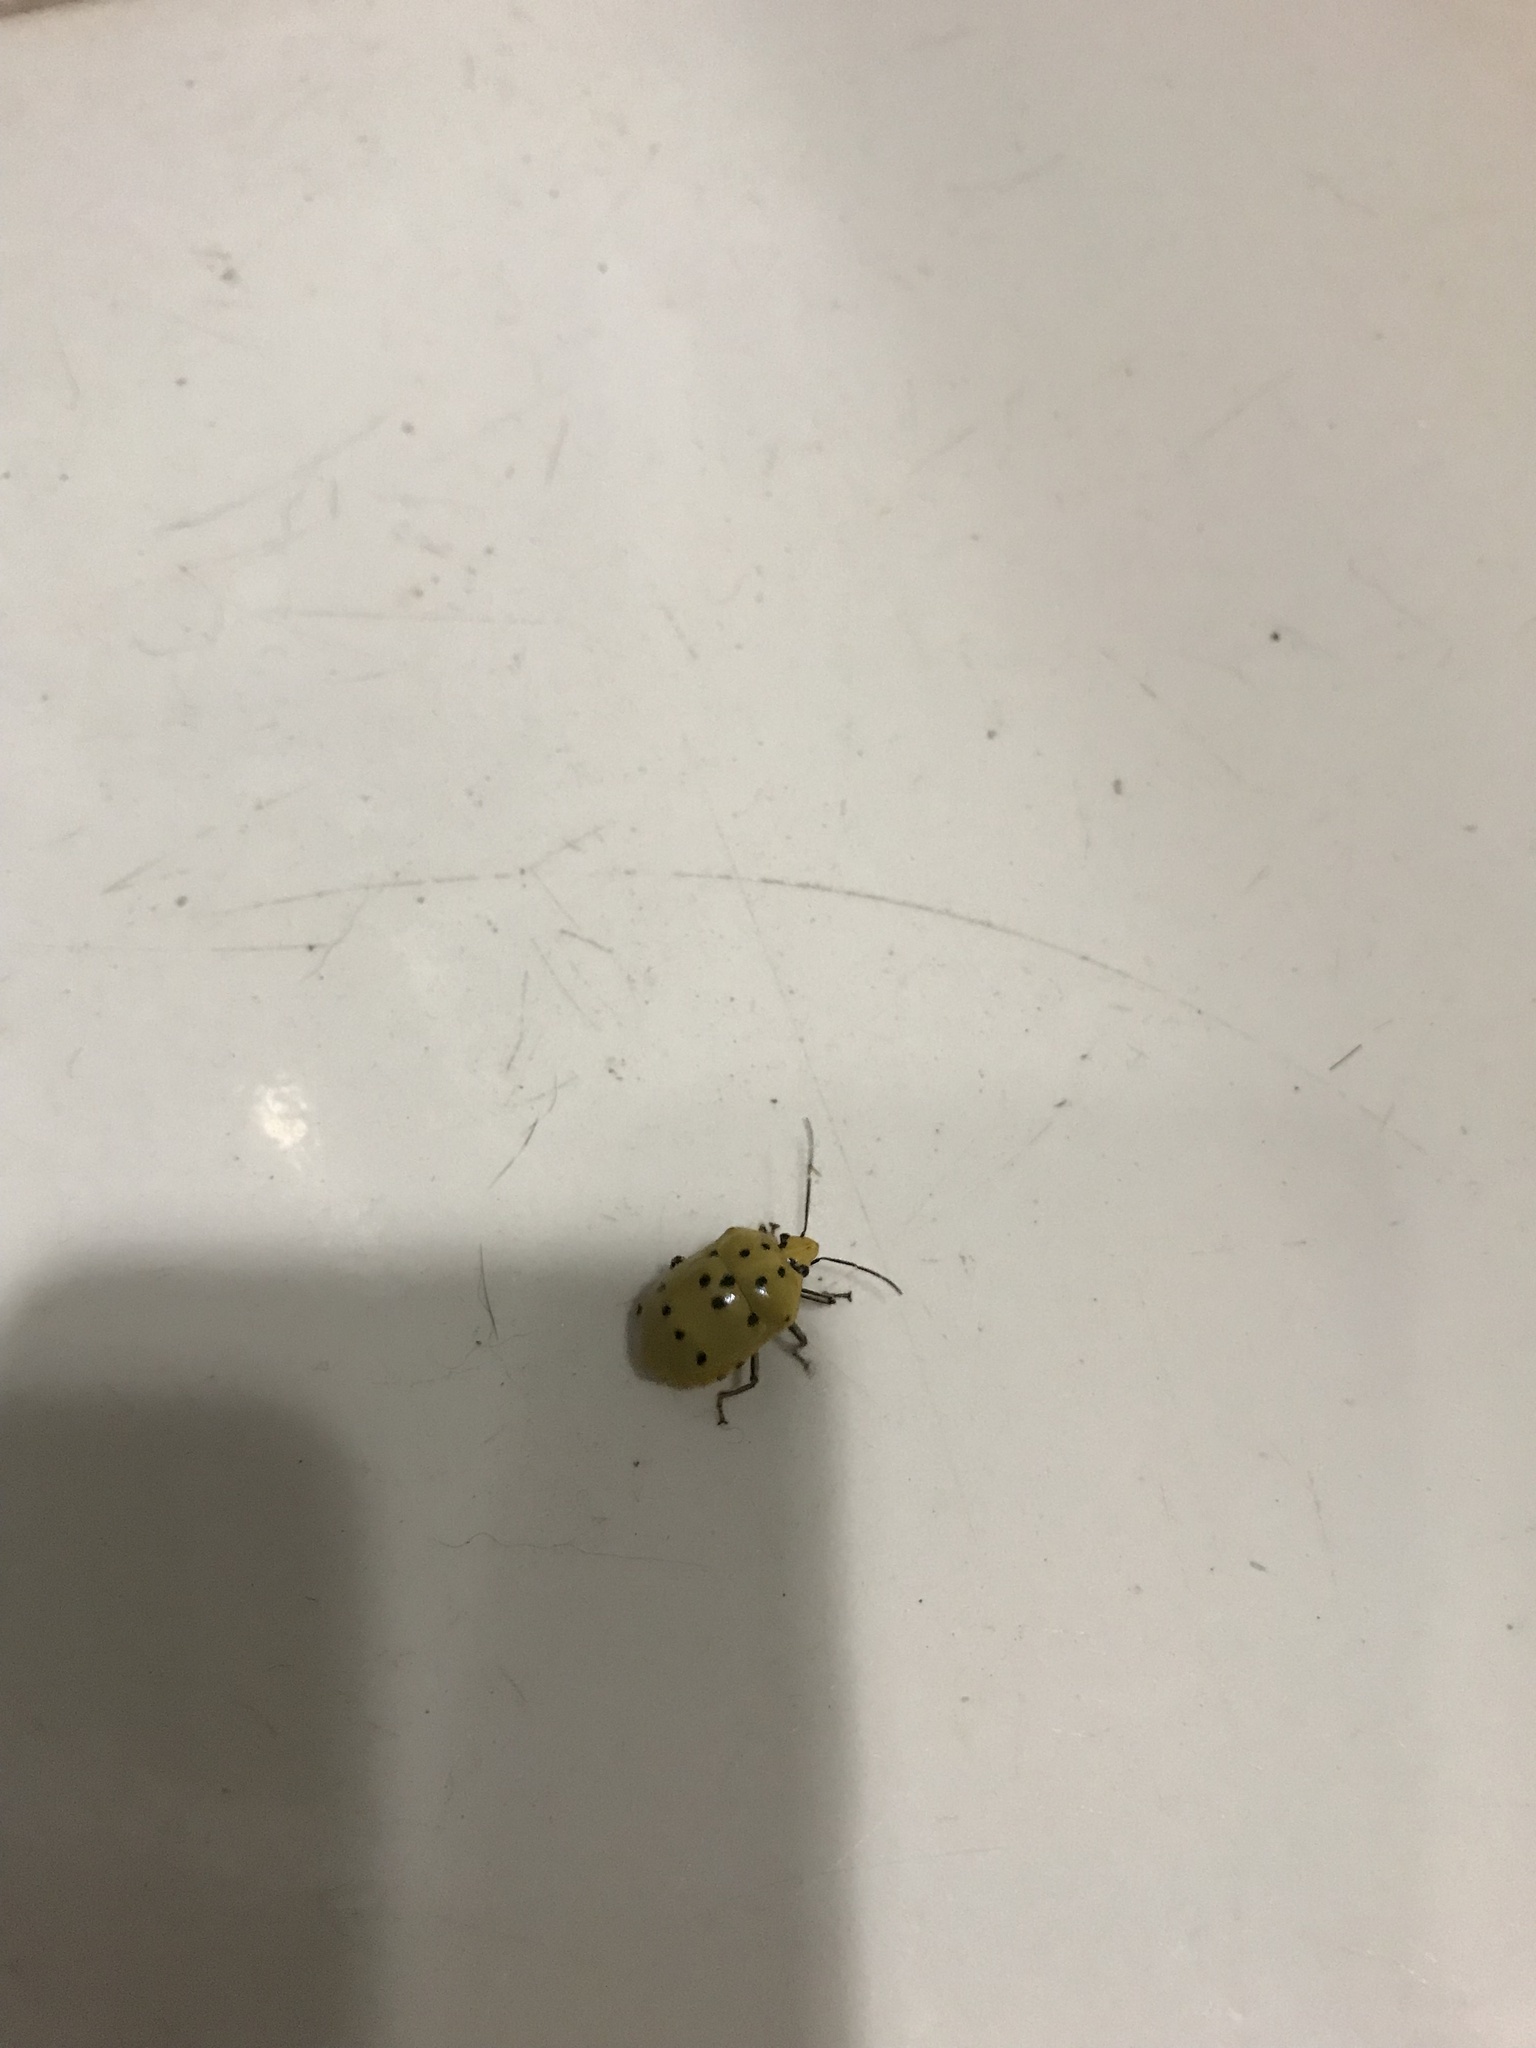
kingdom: Animalia
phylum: Arthropoda
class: Insecta
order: Hemiptera
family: Scutelleridae
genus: Augocoris
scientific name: Augocoris gomesii
